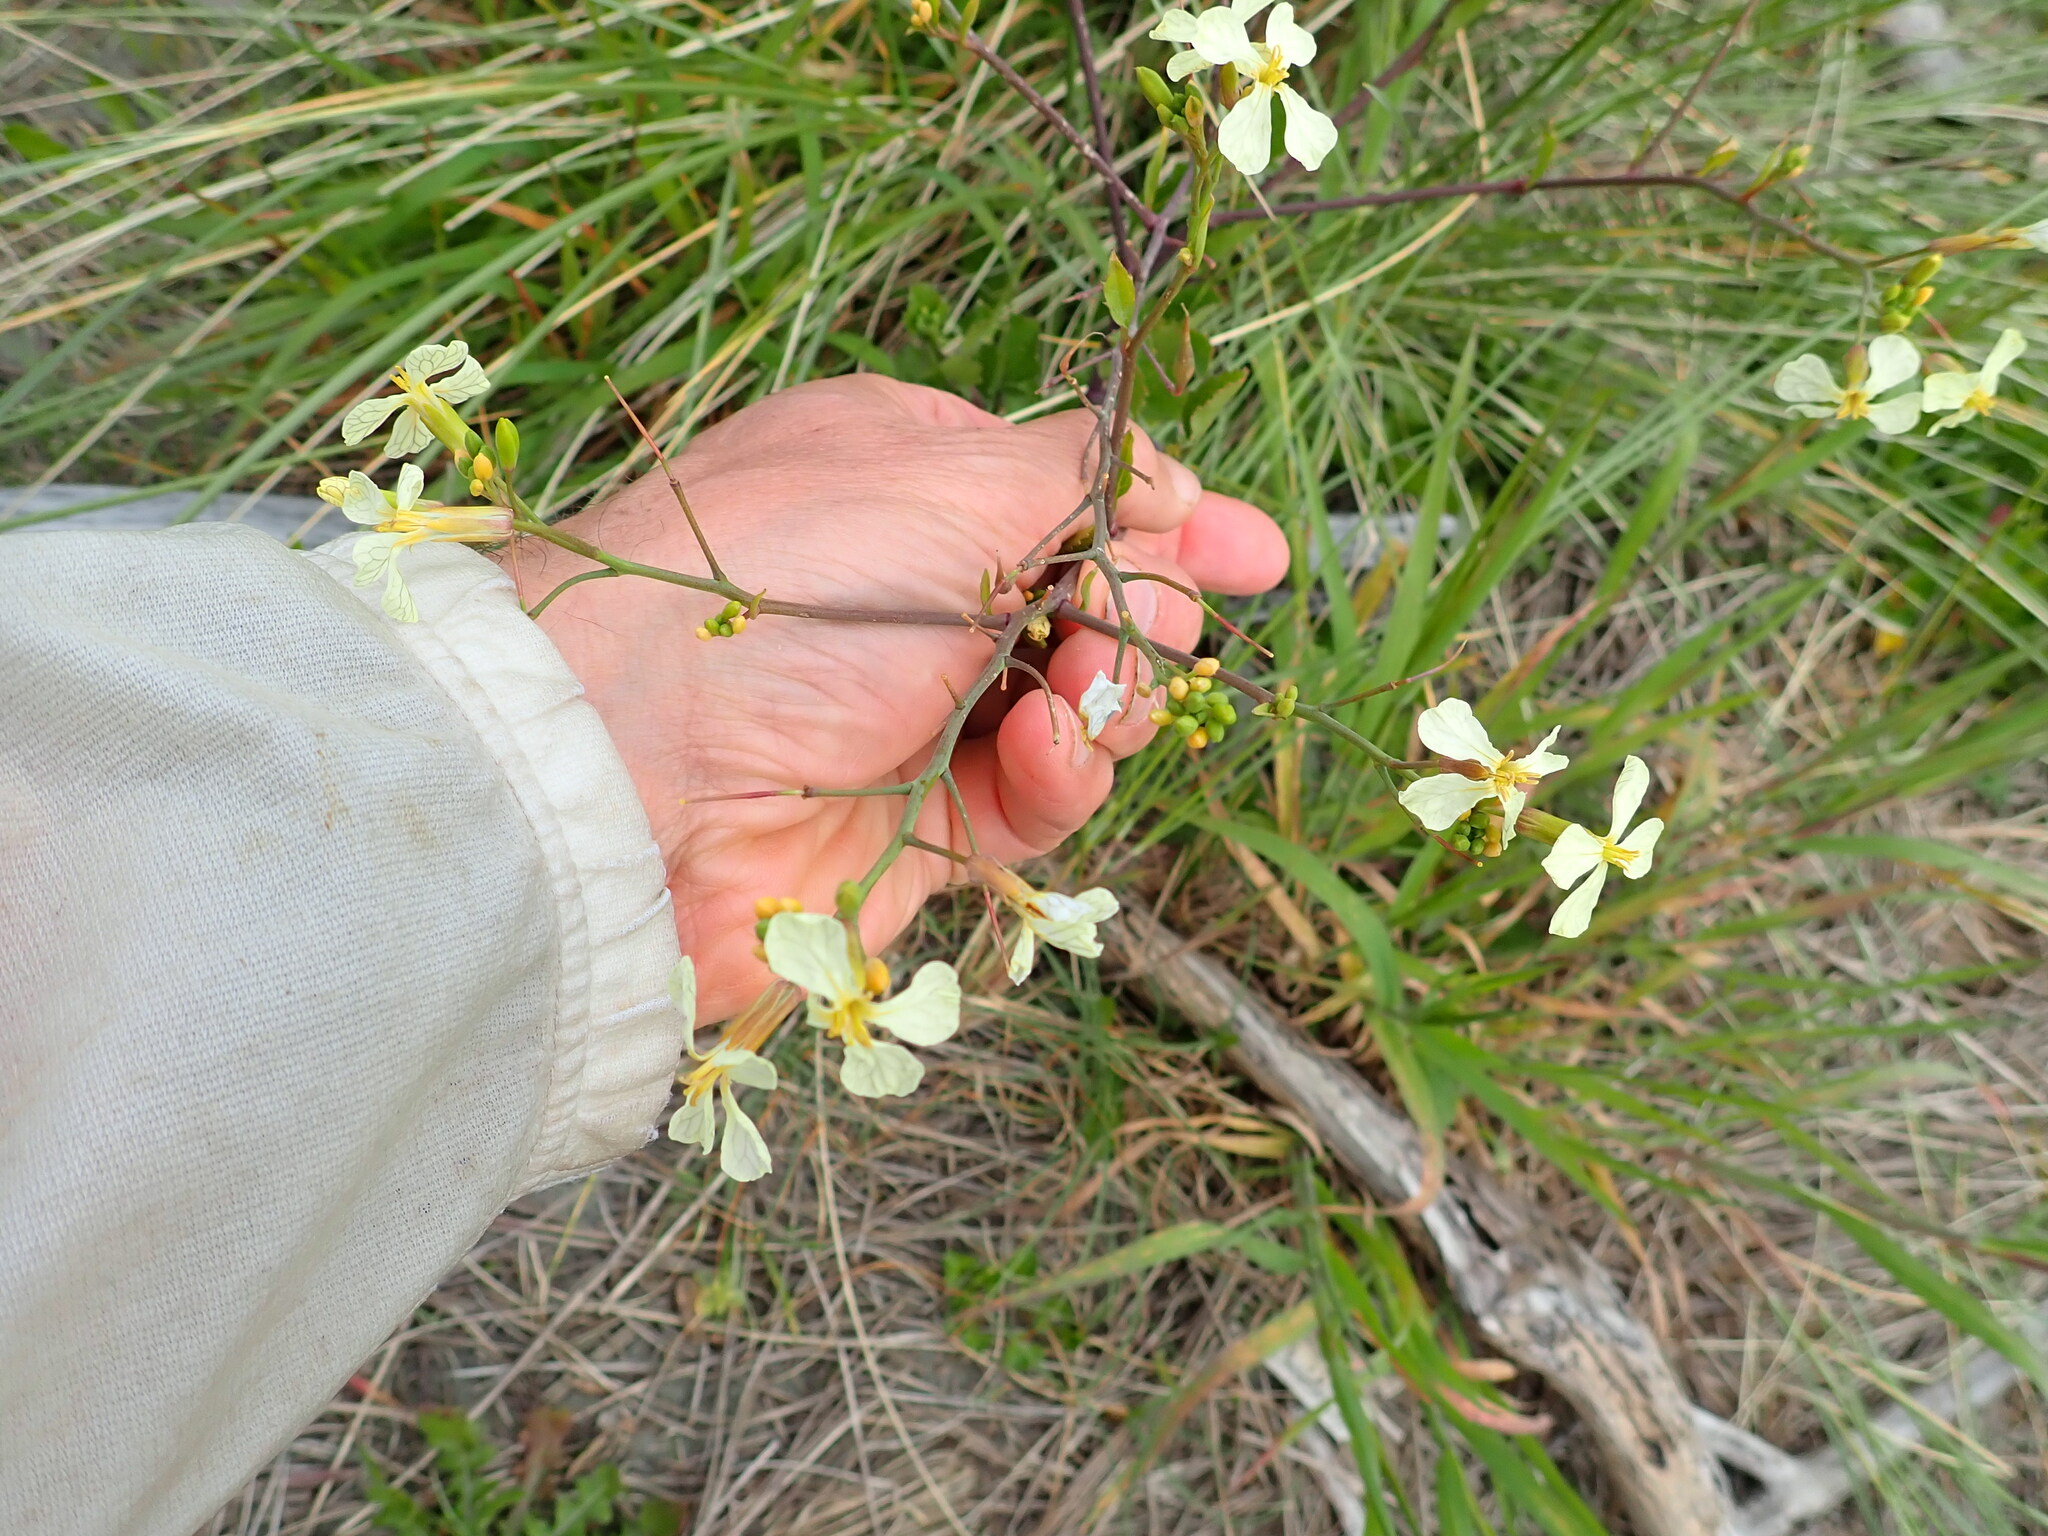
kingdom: Plantae
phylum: Tracheophyta
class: Magnoliopsida
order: Brassicales
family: Brassicaceae
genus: Raphanus
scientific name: Raphanus raphanistrum
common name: Wild radish
